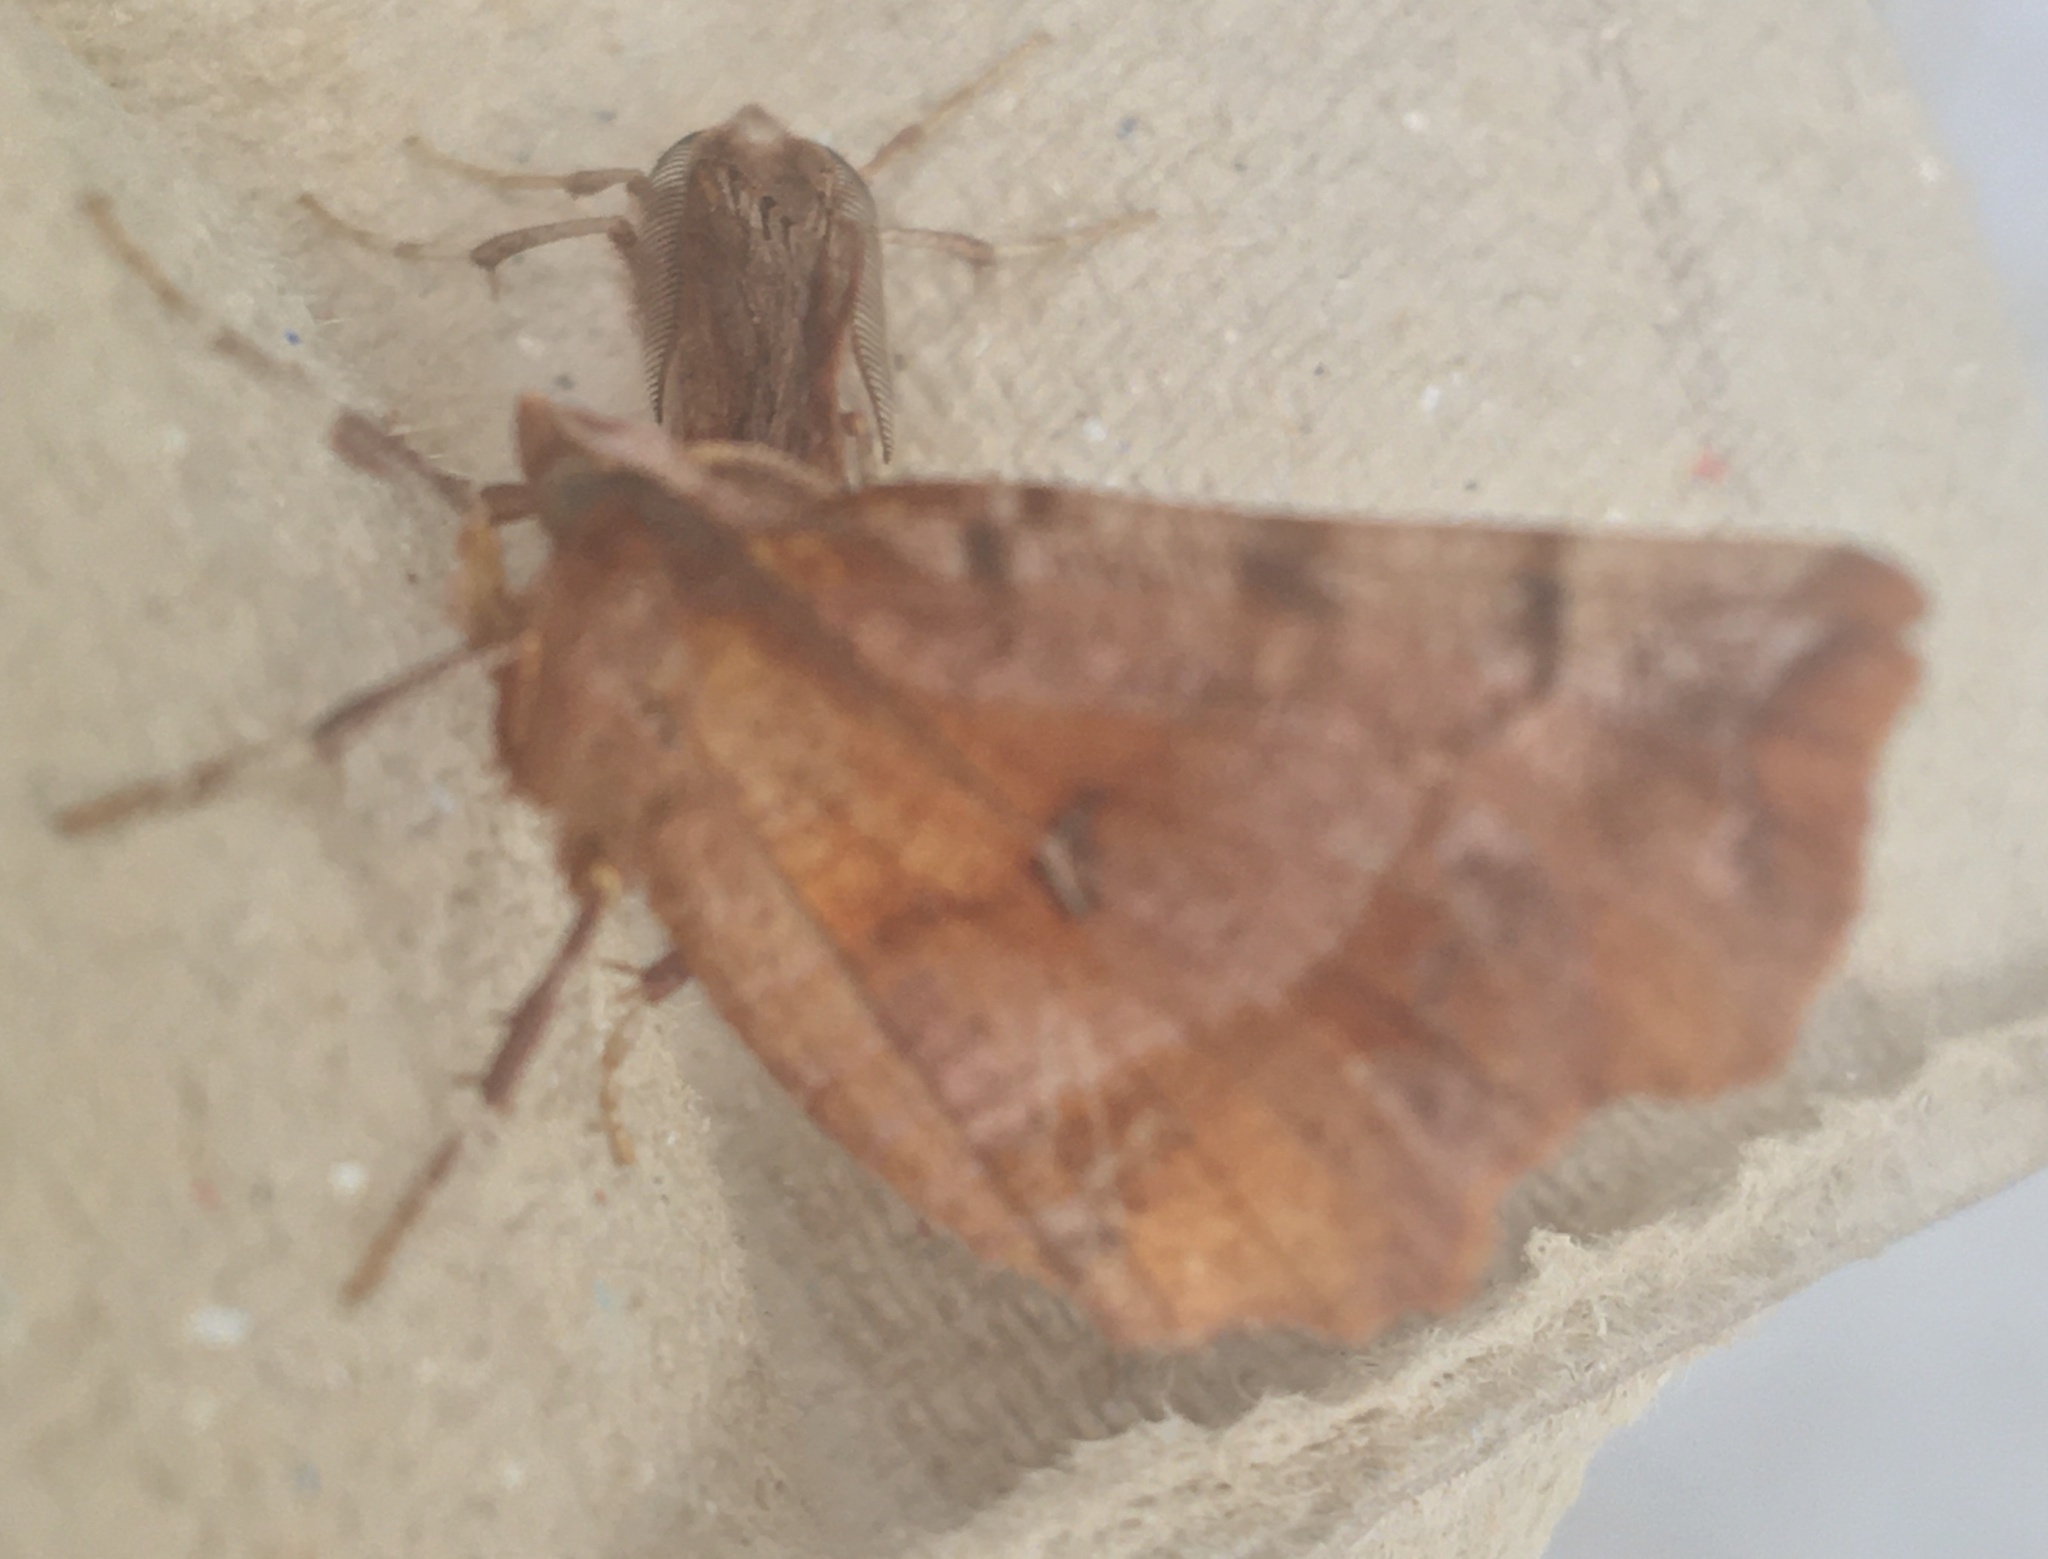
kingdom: Animalia
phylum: Arthropoda
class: Insecta
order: Lepidoptera
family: Geometridae
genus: Selenia
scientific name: Selenia dentaria
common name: Early thorn
